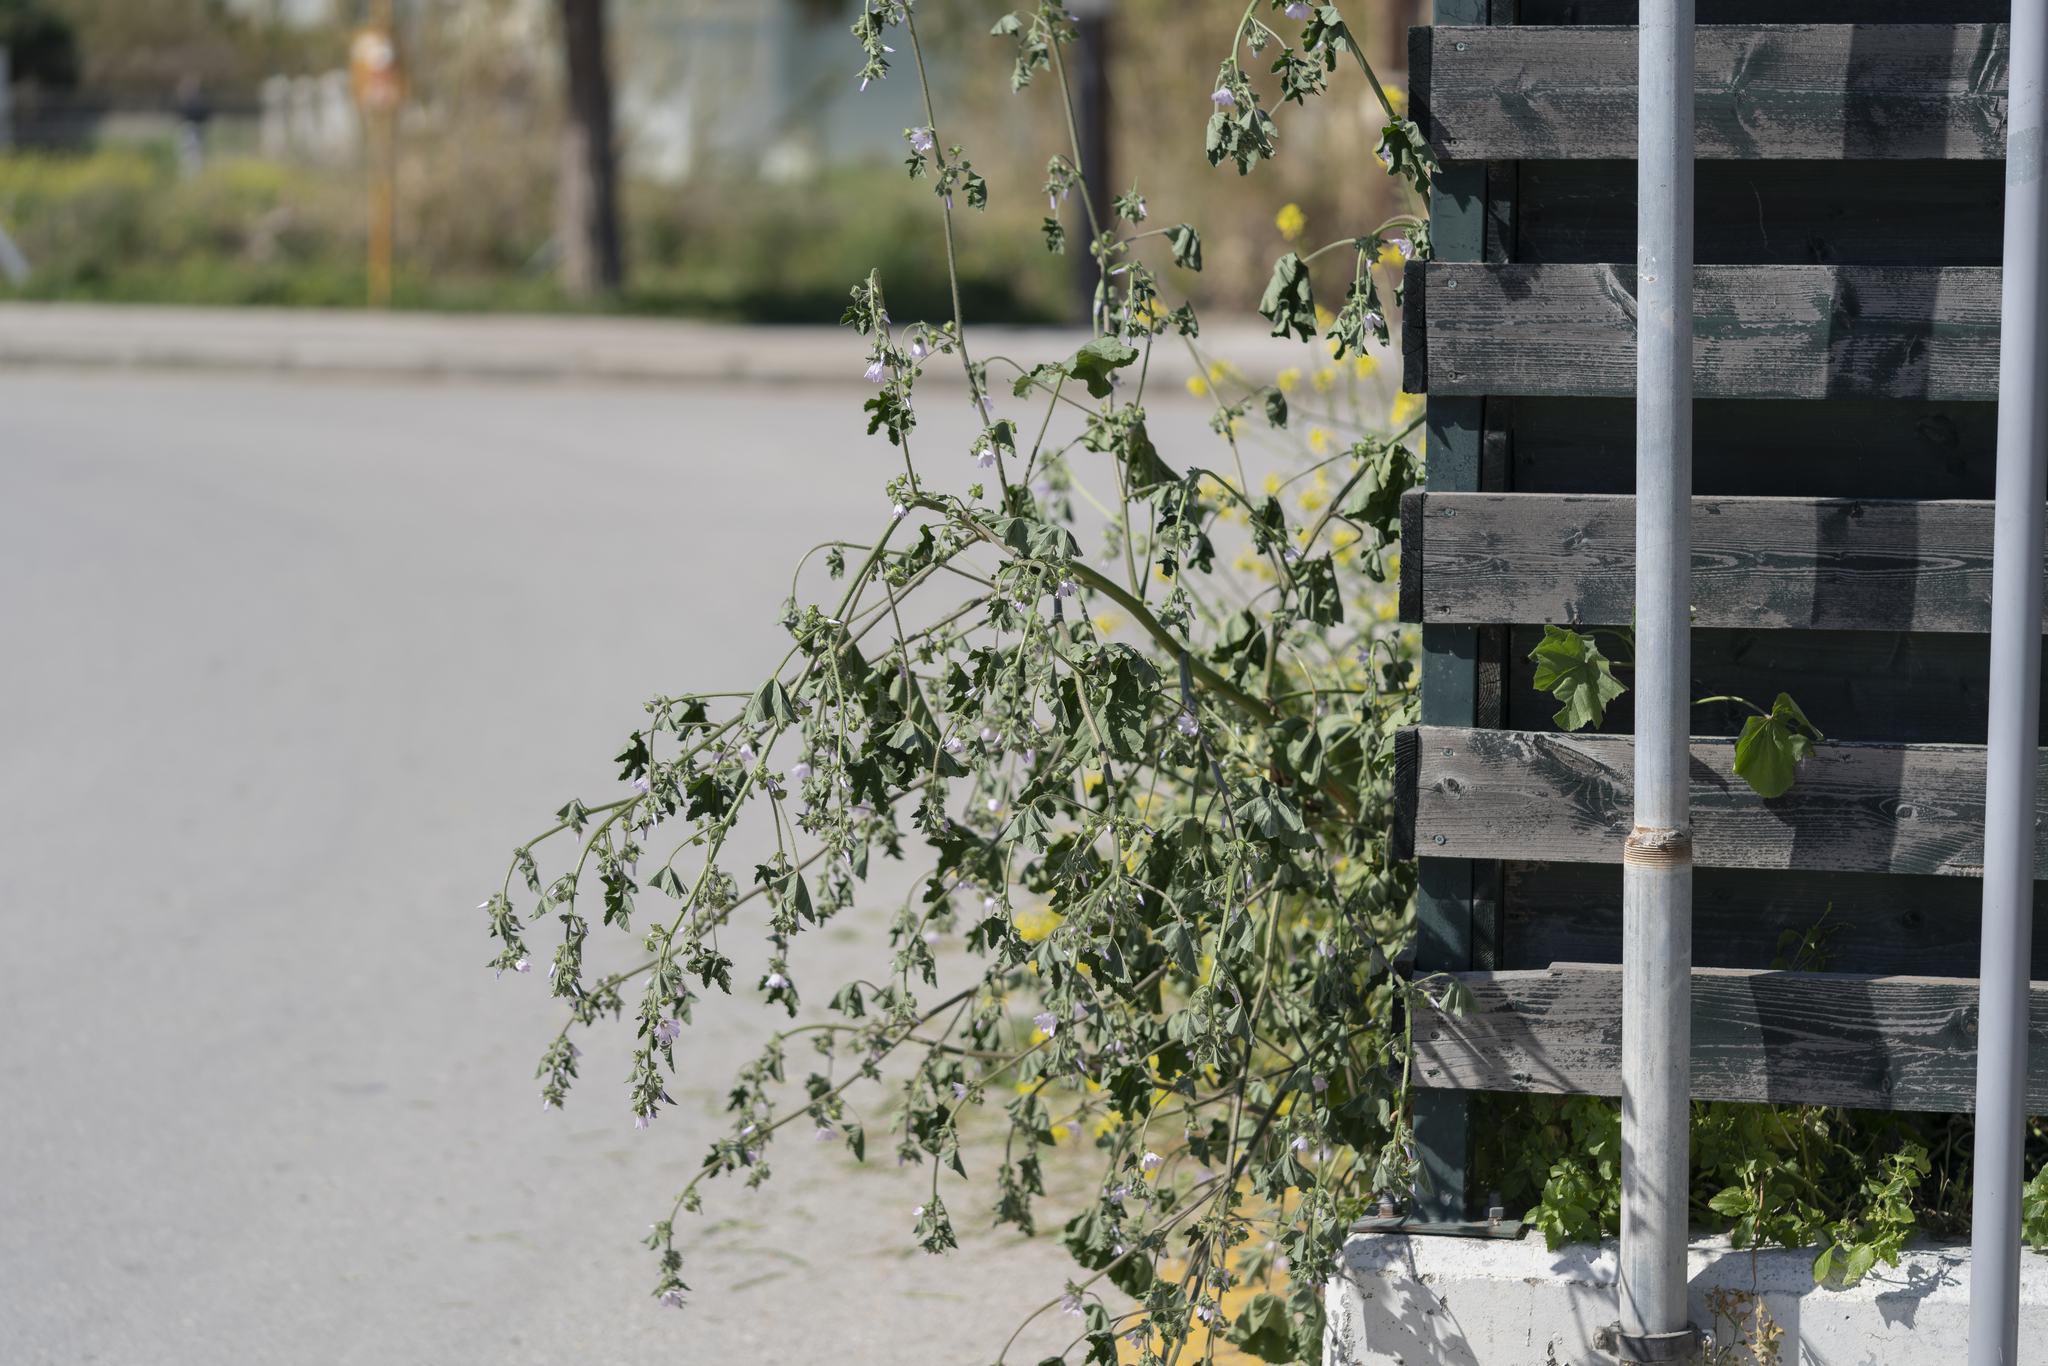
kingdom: Plantae
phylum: Tracheophyta
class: Magnoliopsida
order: Malvales
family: Malvaceae
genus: Malva
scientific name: Malva multiflora
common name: Cheeseweed
